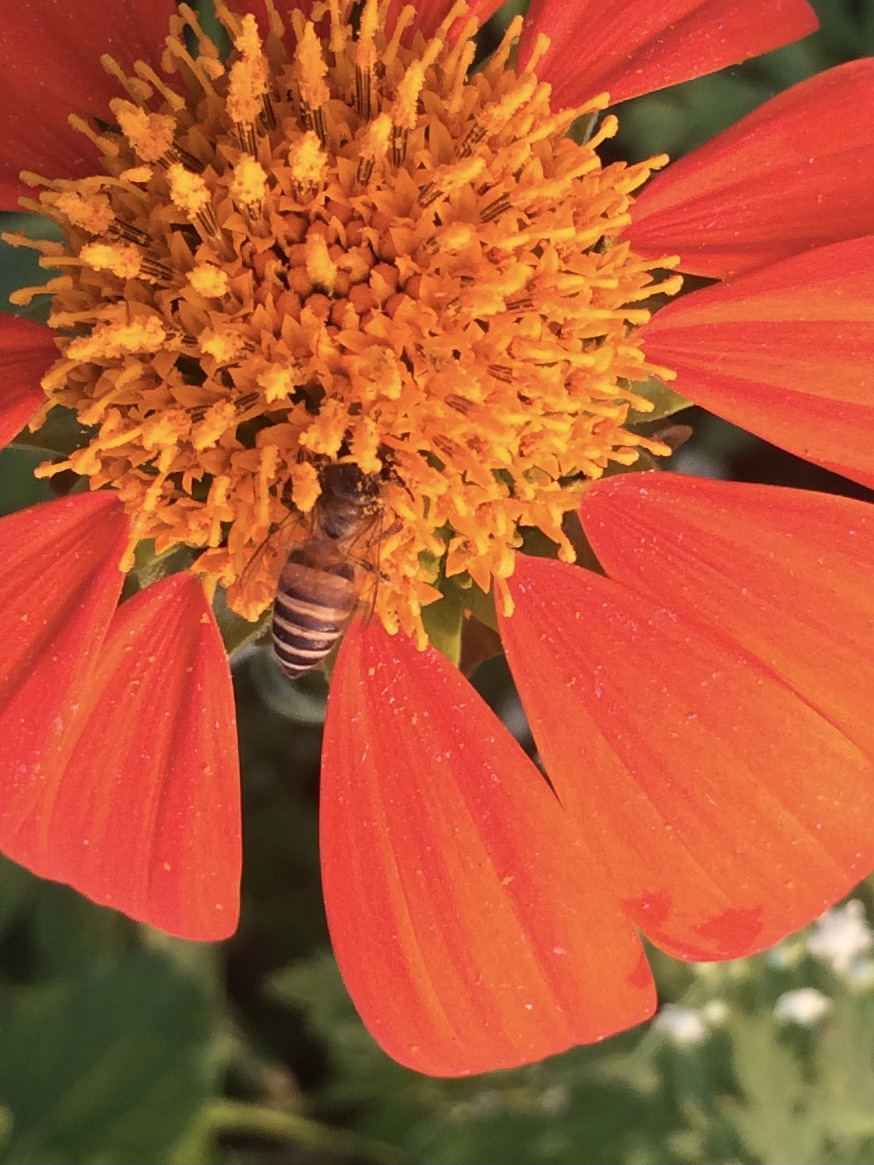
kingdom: Animalia
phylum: Arthropoda
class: Insecta
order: Hymenoptera
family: Apidae
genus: Apis
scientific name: Apis cerana
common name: Honey bee
